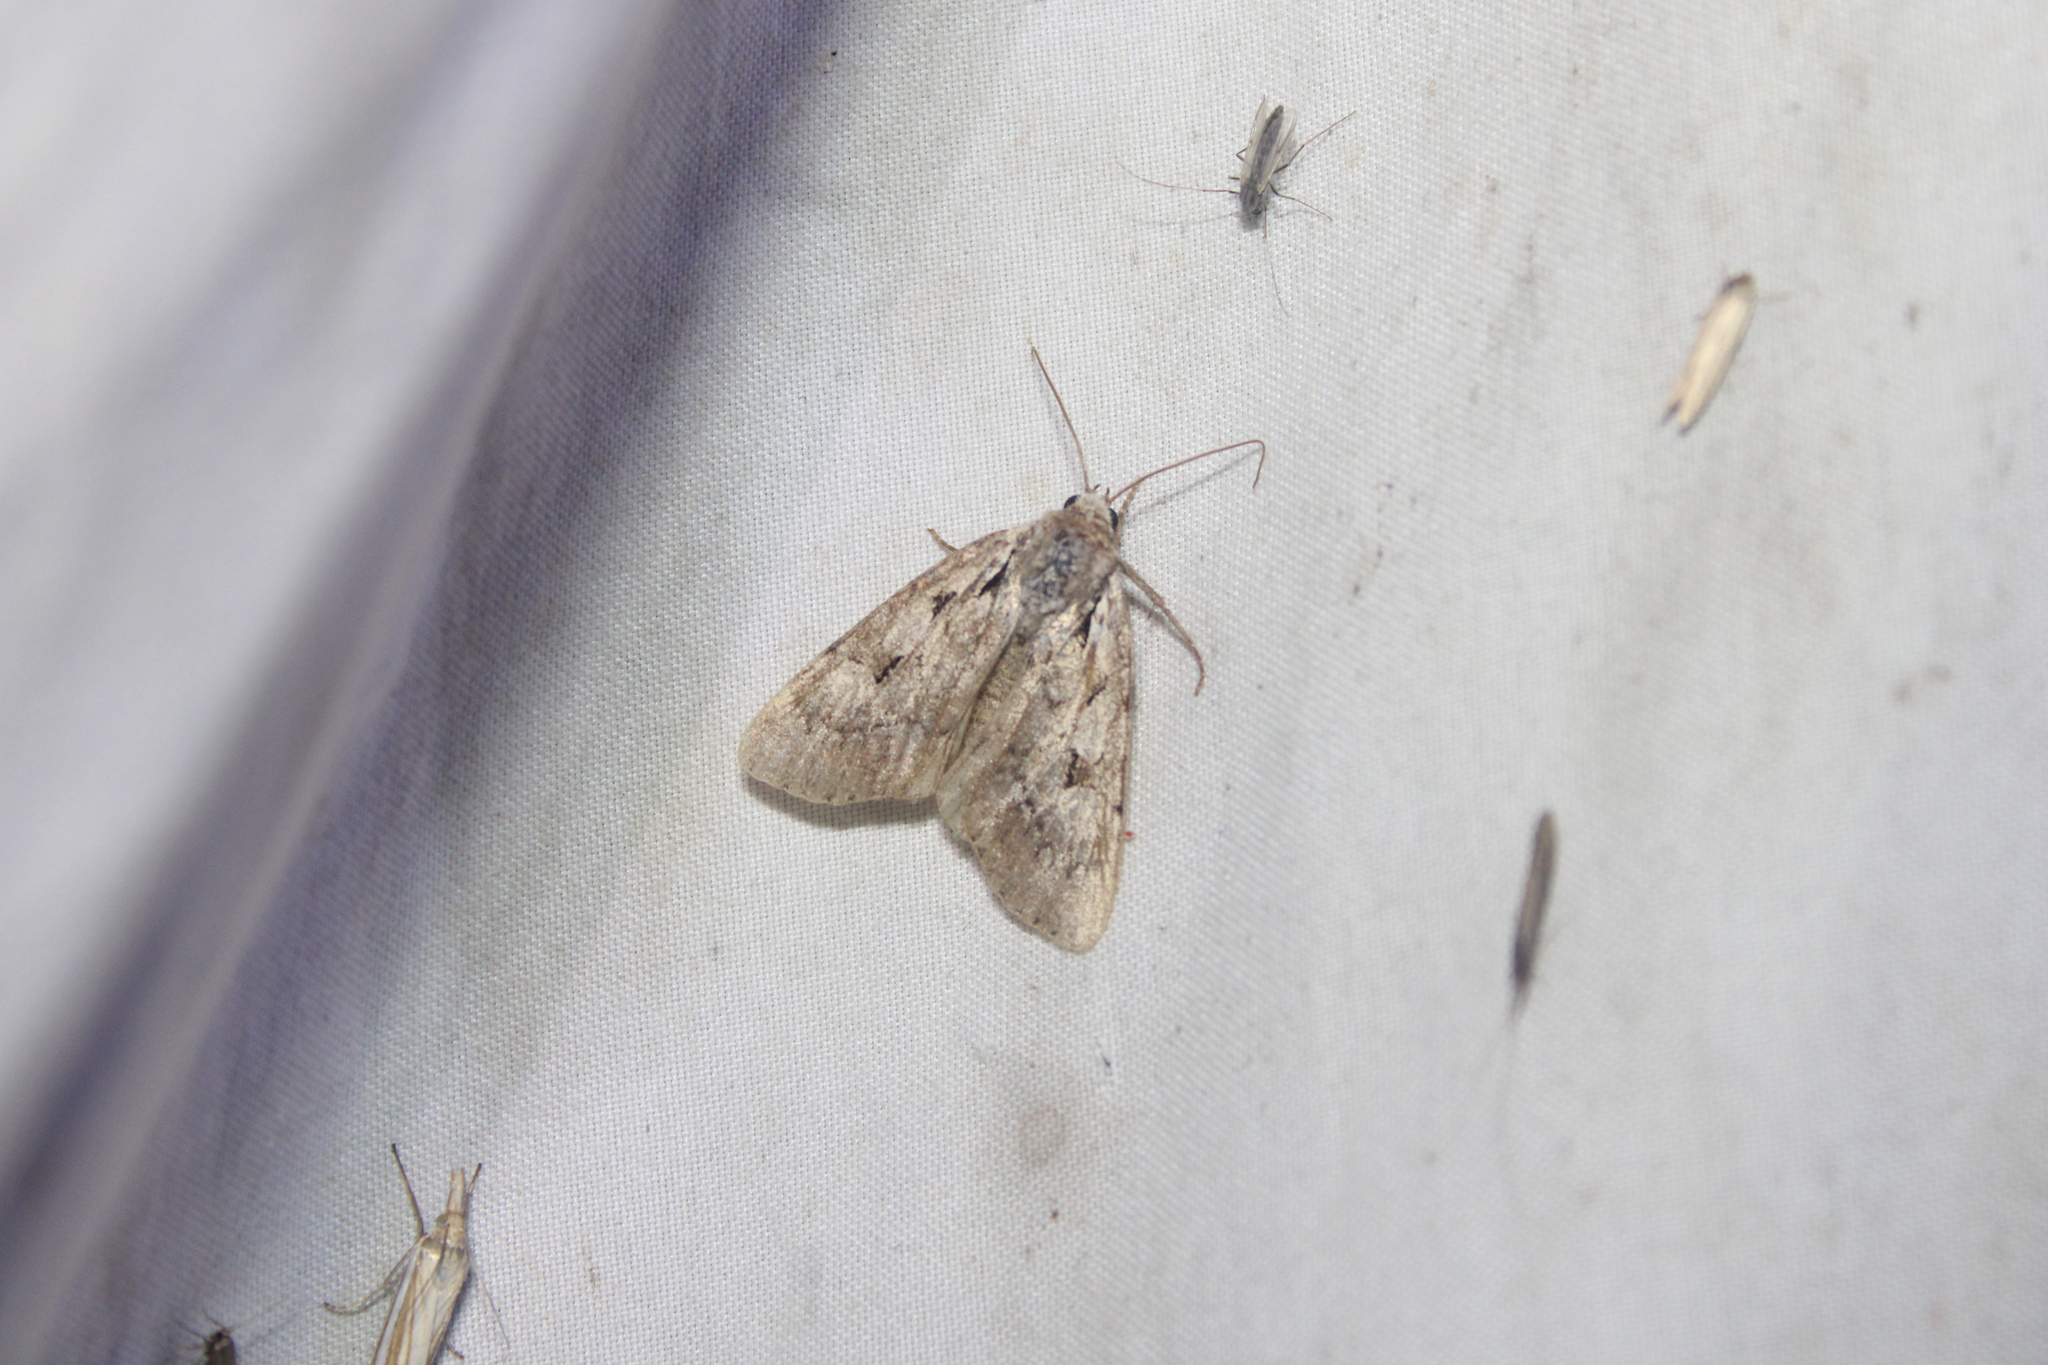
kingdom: Animalia
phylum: Arthropoda
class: Insecta
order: Lepidoptera
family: Noctuidae
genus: Aplectoides
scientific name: Aplectoides condita
